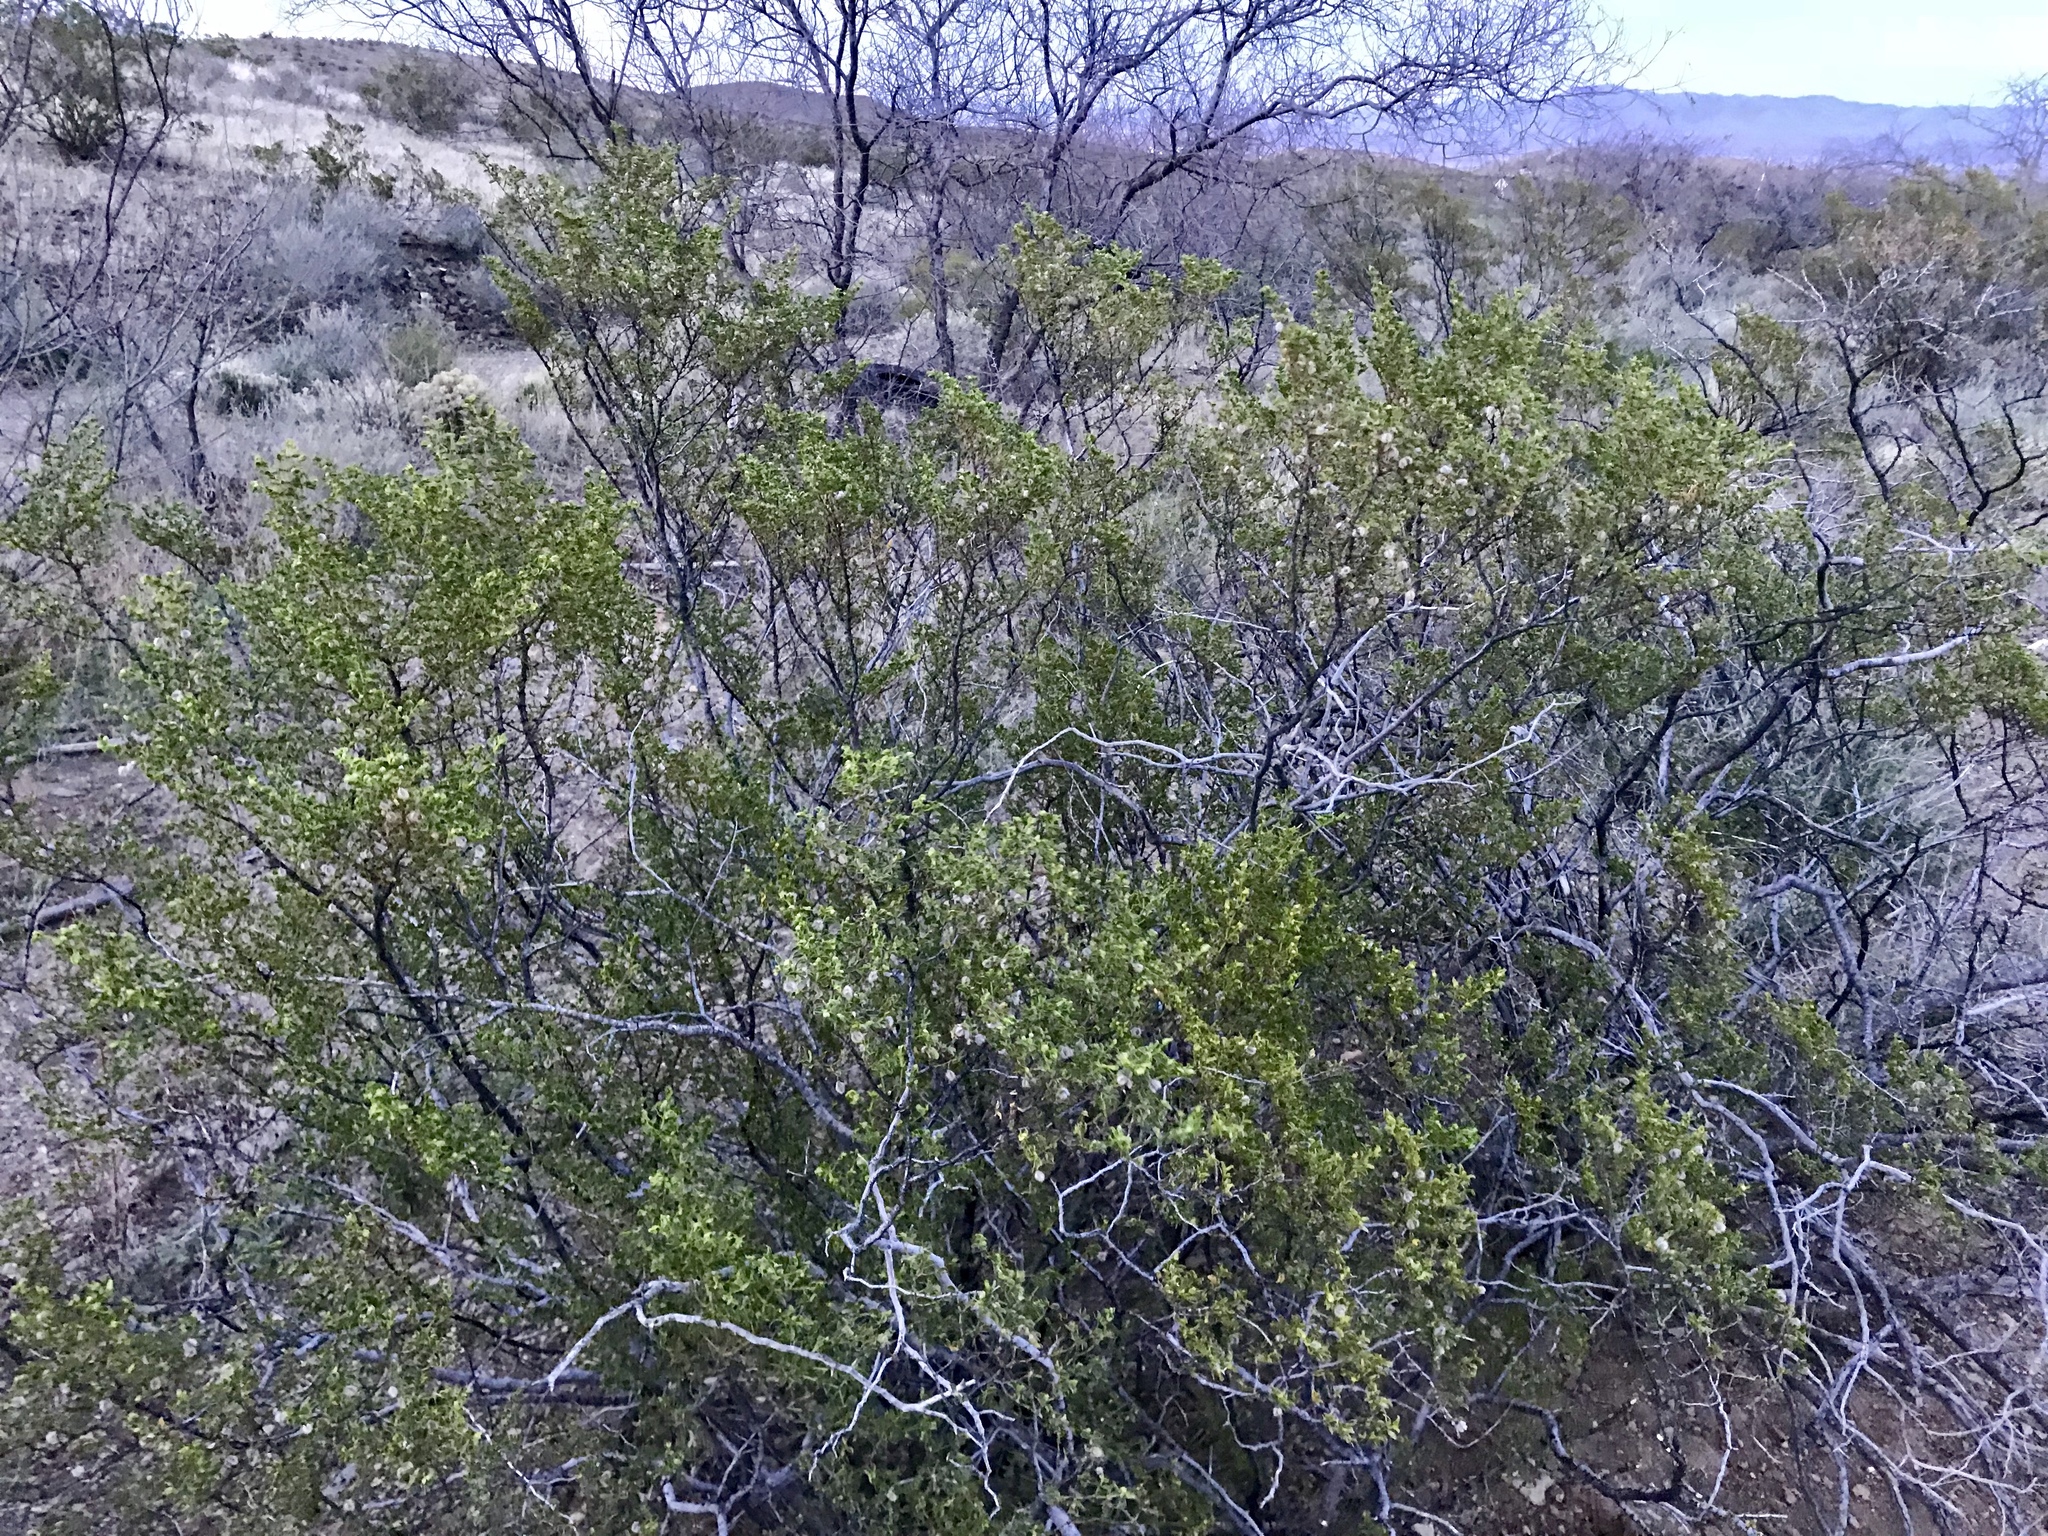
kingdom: Plantae
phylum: Tracheophyta
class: Magnoliopsida
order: Zygophyllales
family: Zygophyllaceae
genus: Larrea
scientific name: Larrea tridentata
